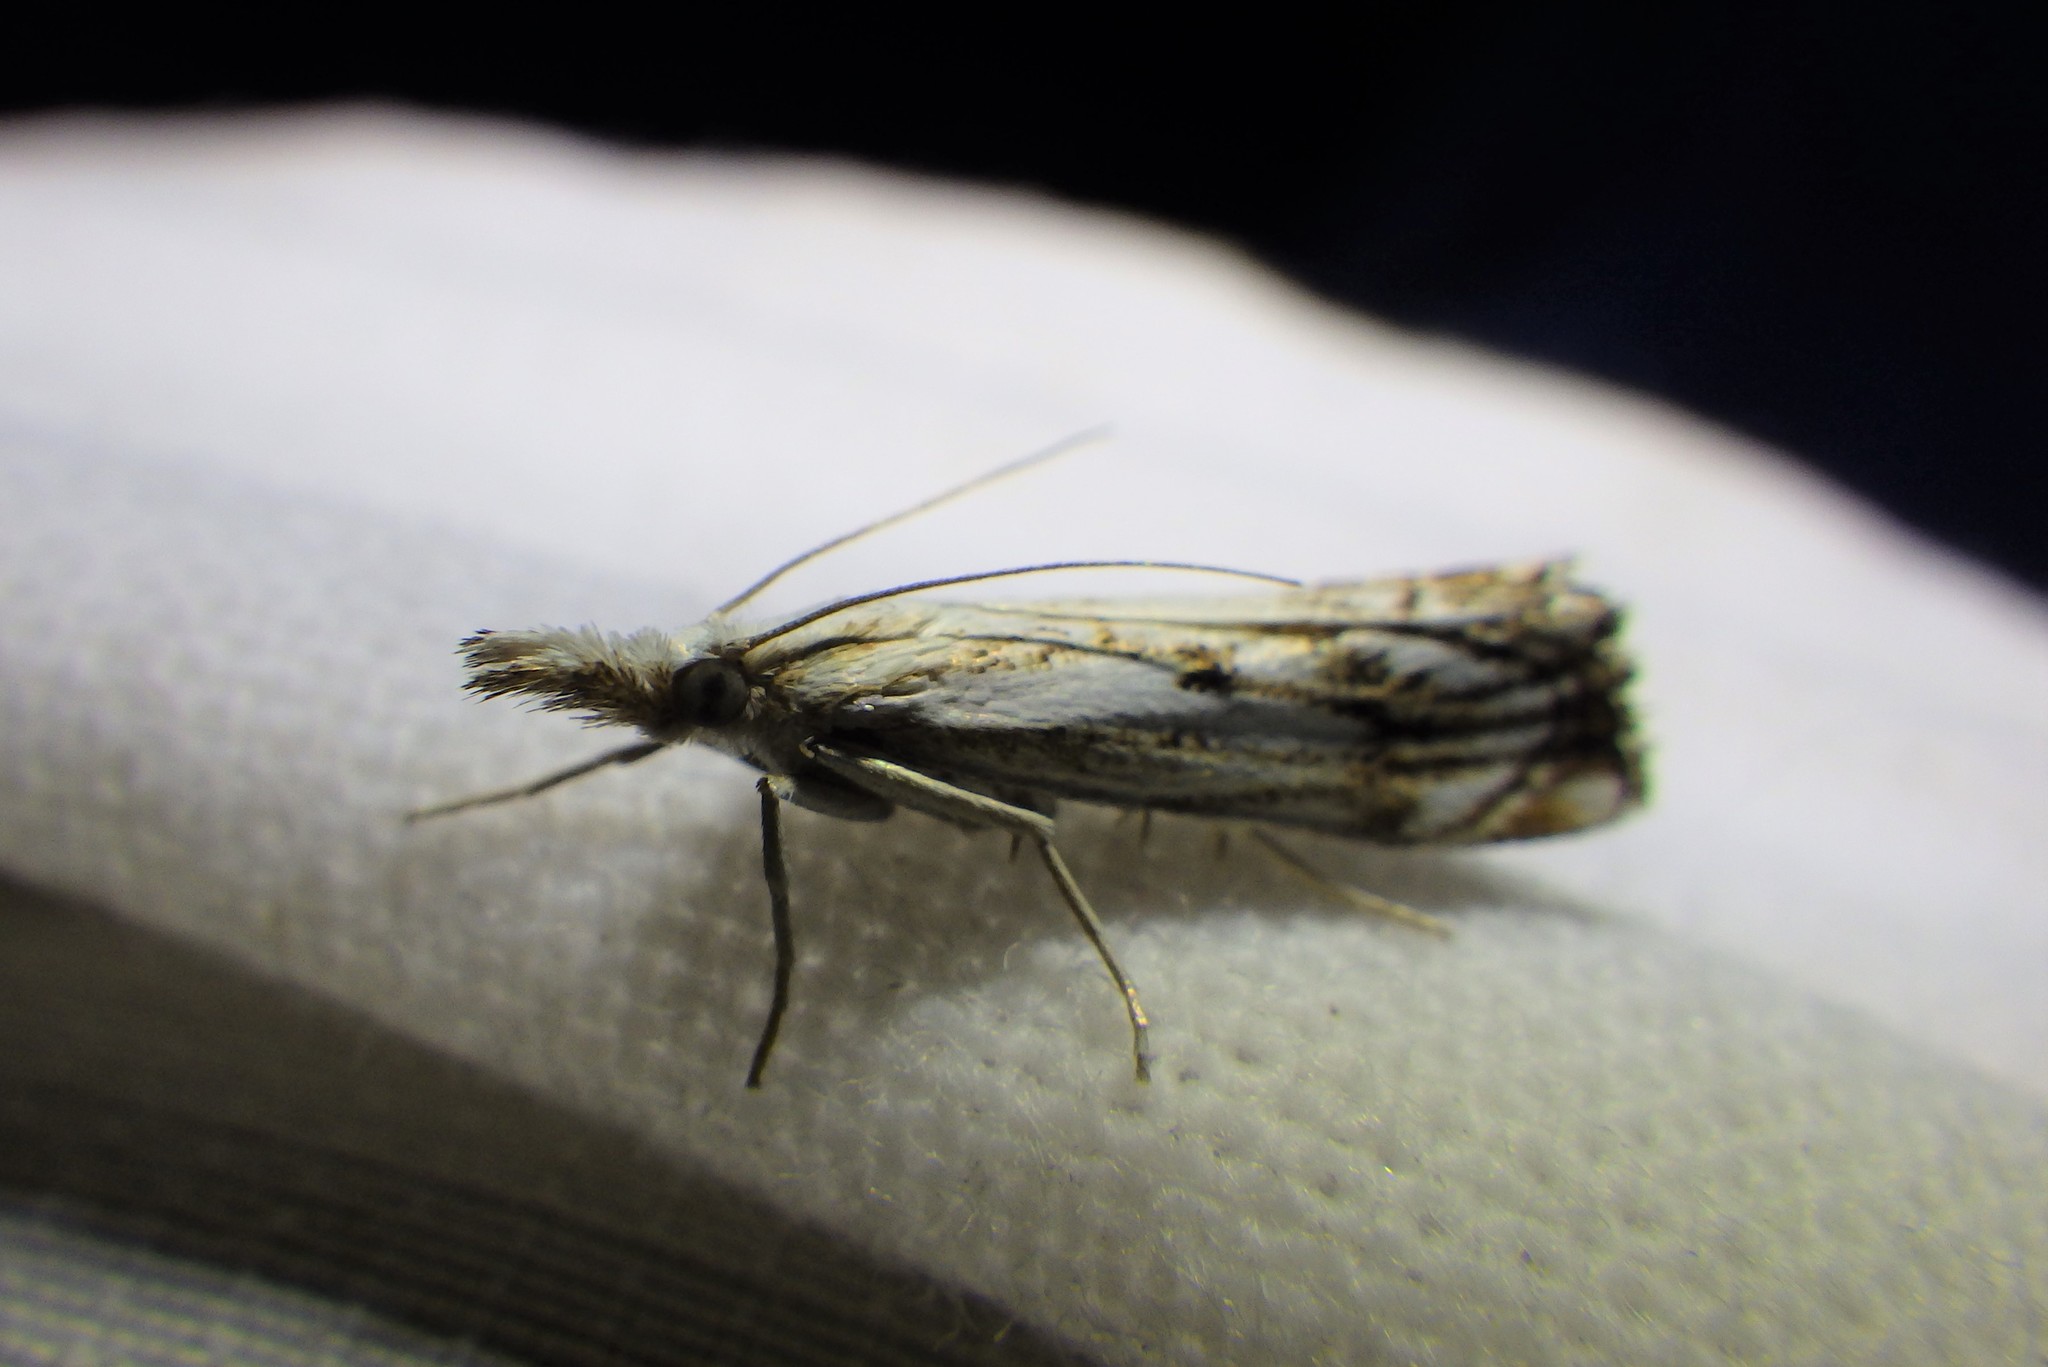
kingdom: Animalia
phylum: Arthropoda
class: Insecta
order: Lepidoptera
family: Crambidae
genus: Catoptria
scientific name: Catoptria falsella
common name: Chequered grass-veneer
